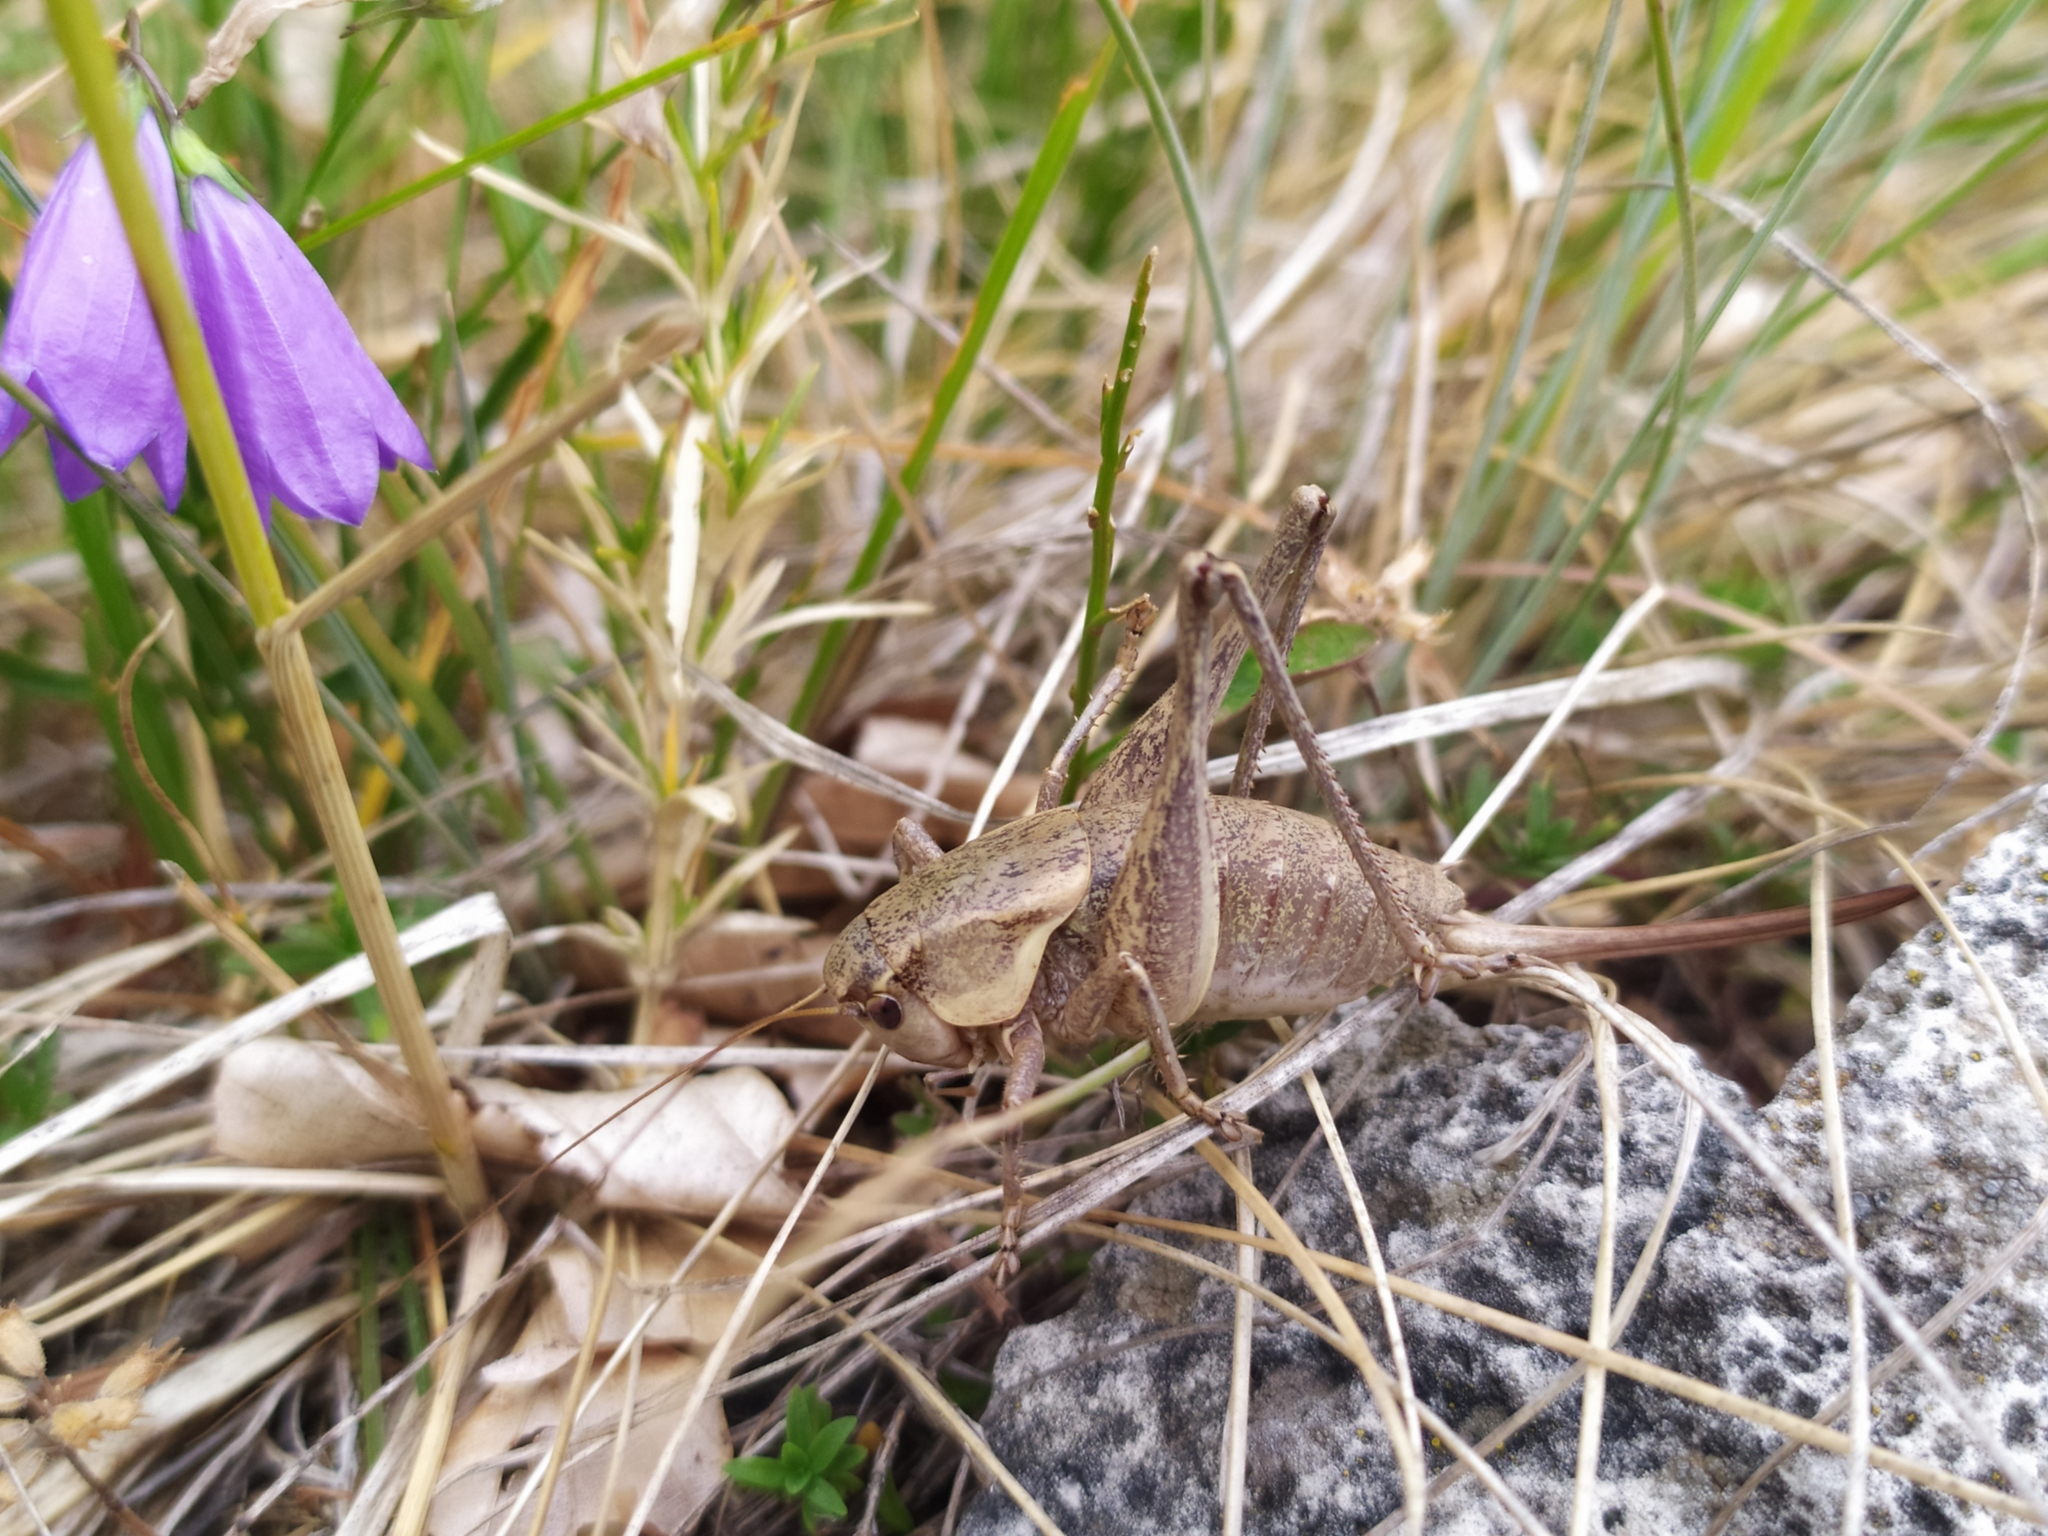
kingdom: Animalia
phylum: Arthropoda
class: Insecta
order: Orthoptera
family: Tettigoniidae
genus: Pholidoptera
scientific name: Pholidoptera dalmatica
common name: Dalmatian dark bush-cricket
